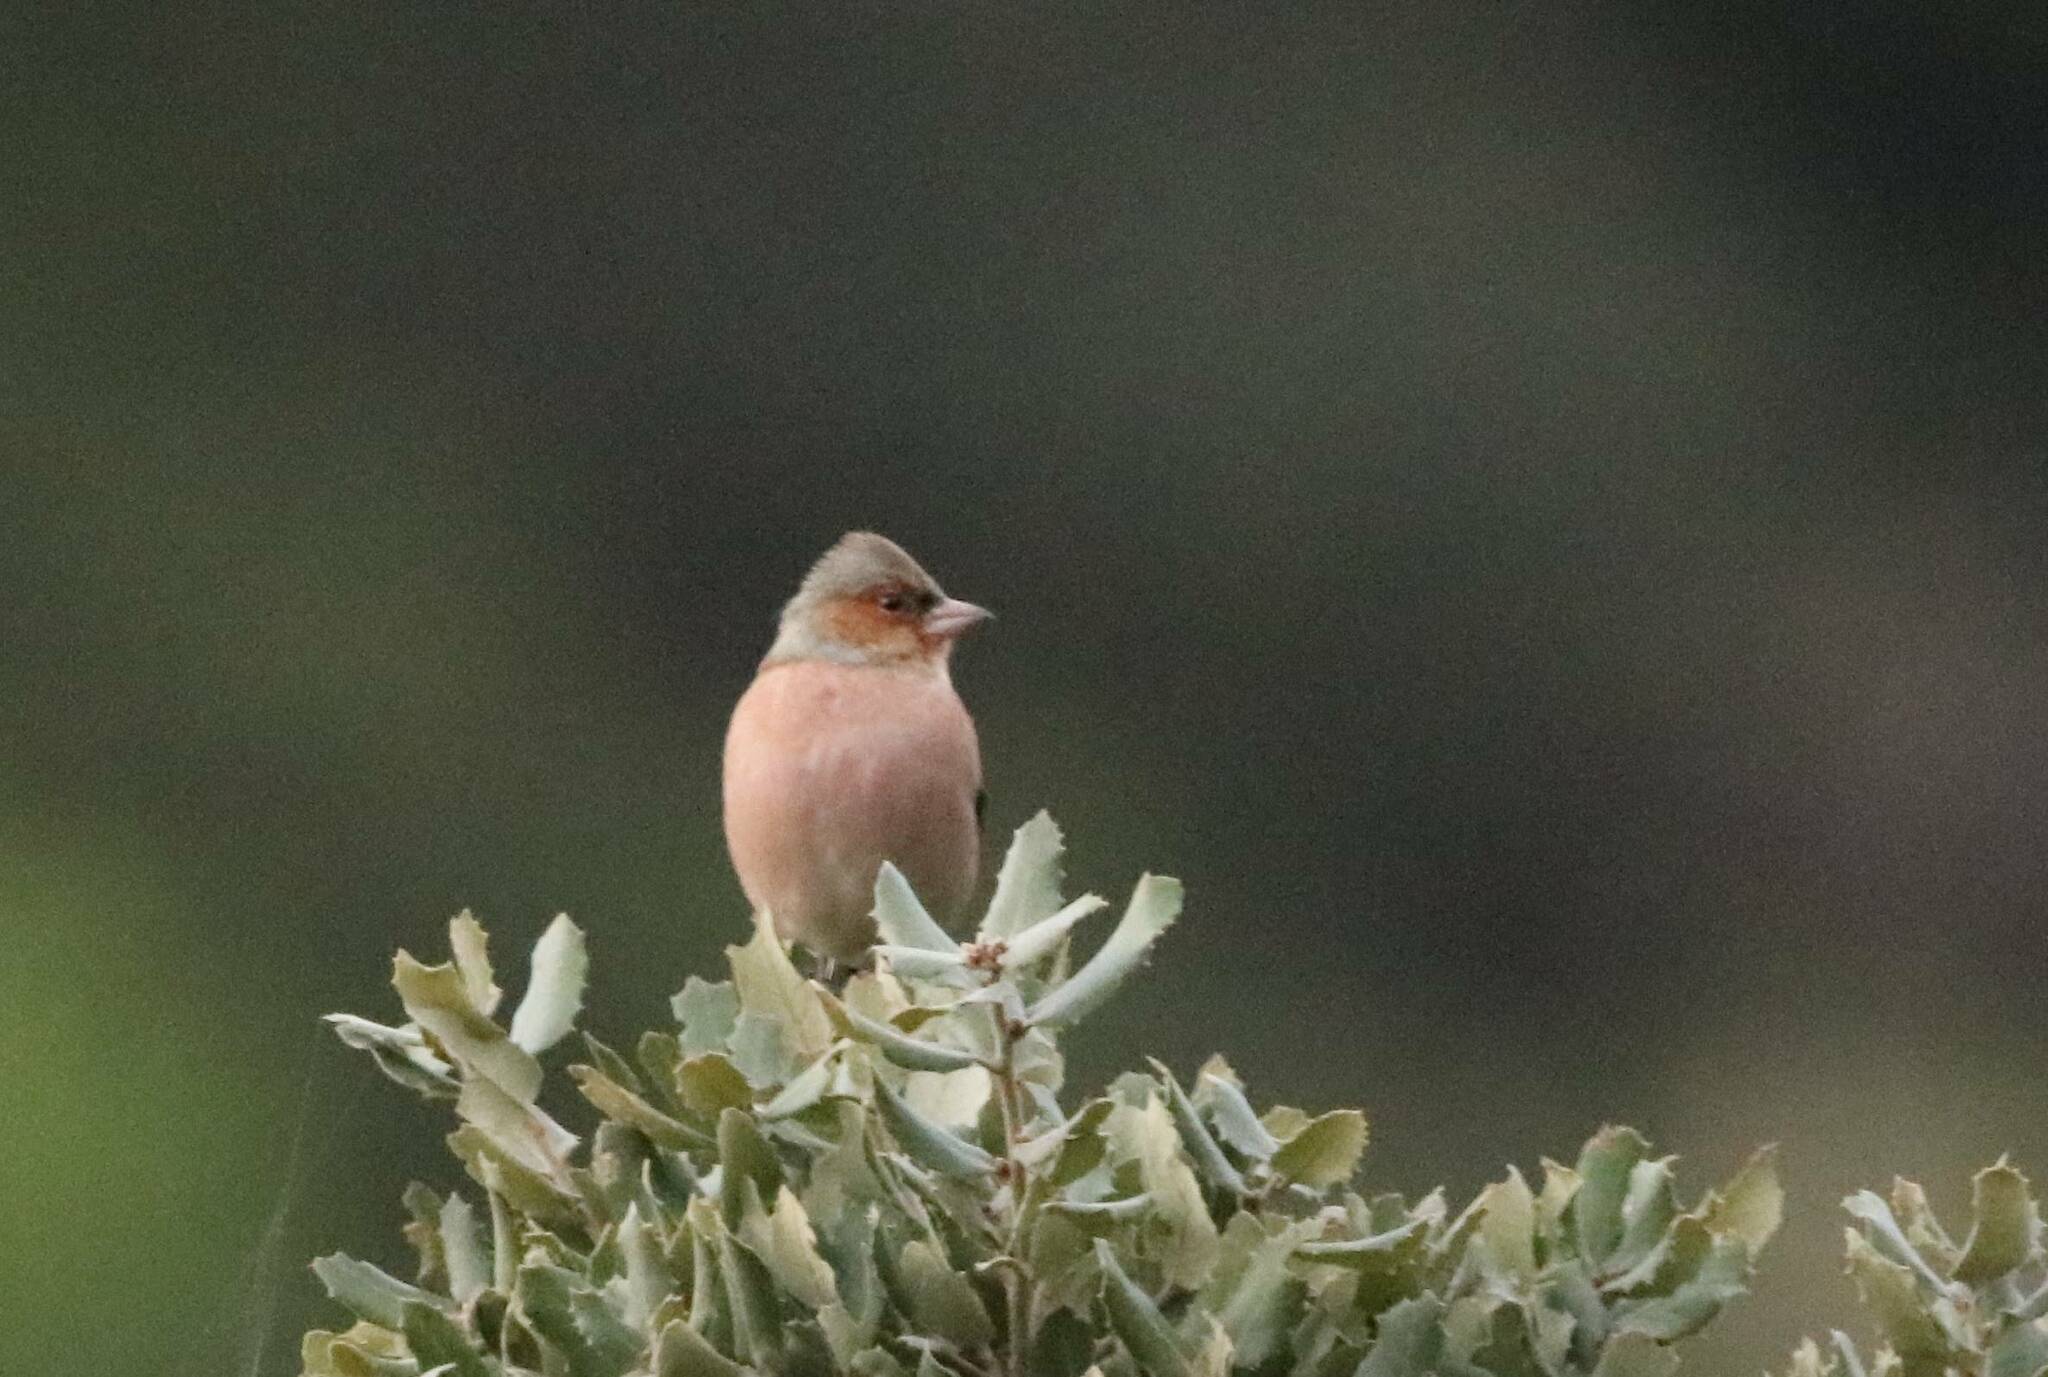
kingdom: Animalia
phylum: Chordata
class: Aves
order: Passeriformes
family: Fringillidae
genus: Fringilla
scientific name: Fringilla coelebs
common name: Common chaffinch
